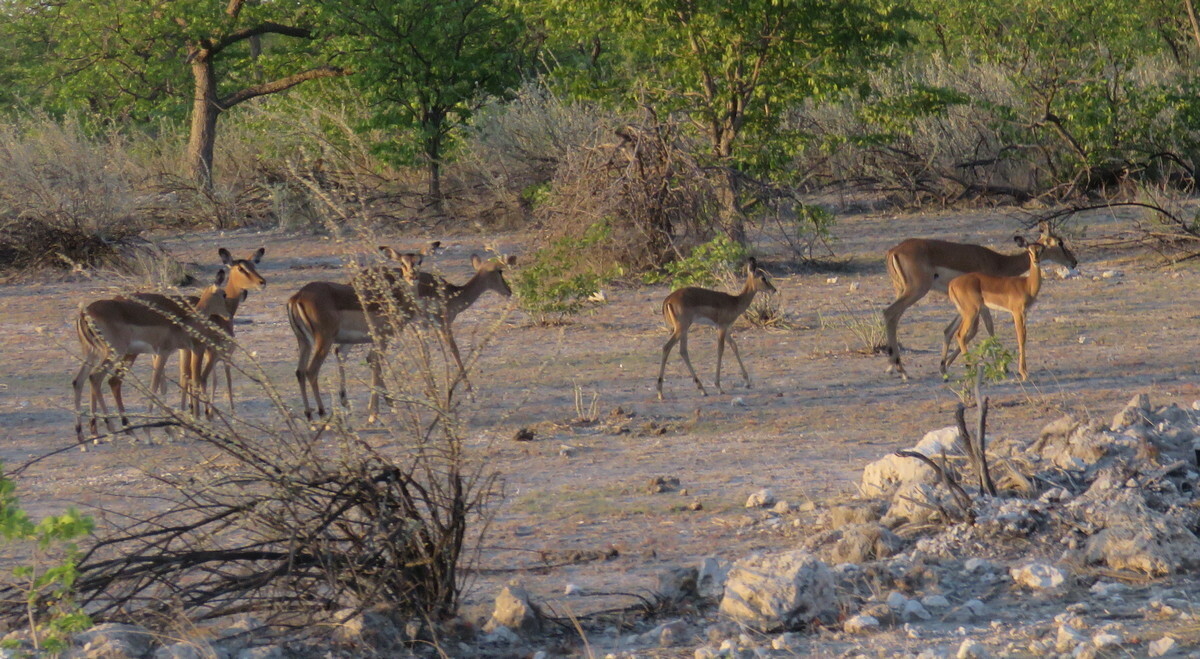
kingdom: Animalia
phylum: Chordata
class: Mammalia
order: Artiodactyla
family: Bovidae
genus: Aepyceros
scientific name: Aepyceros melampus
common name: Impala
